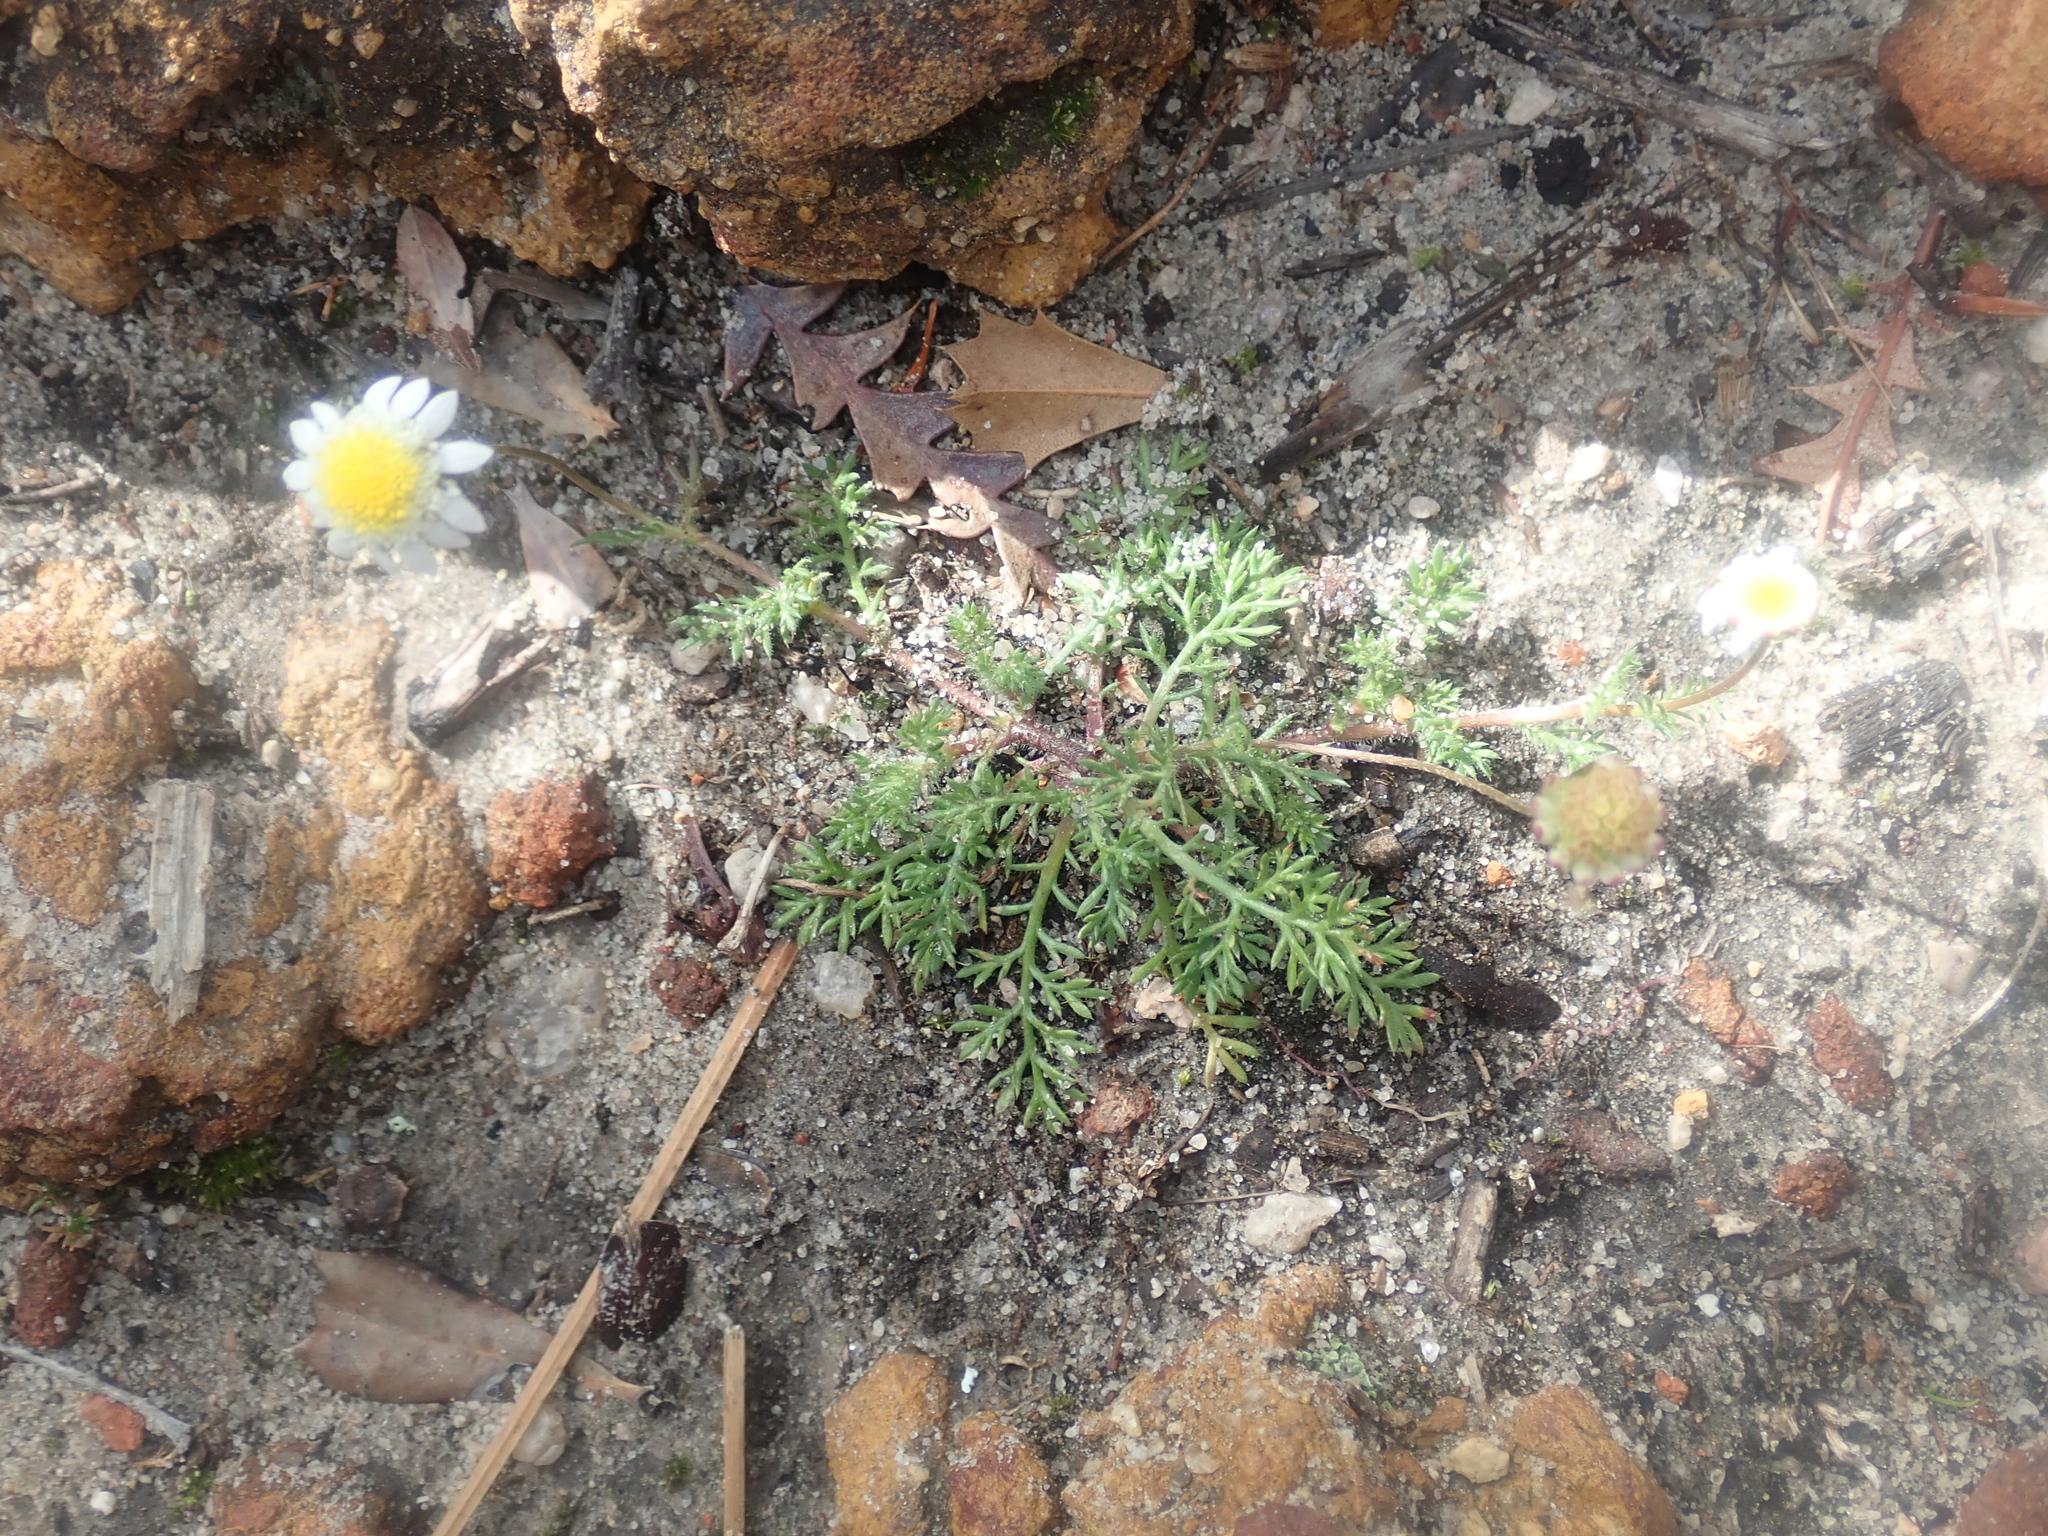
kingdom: Plantae
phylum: Tracheophyta
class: Magnoliopsida
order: Asterales
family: Asteraceae
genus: Cotula
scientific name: Cotula turbinata
